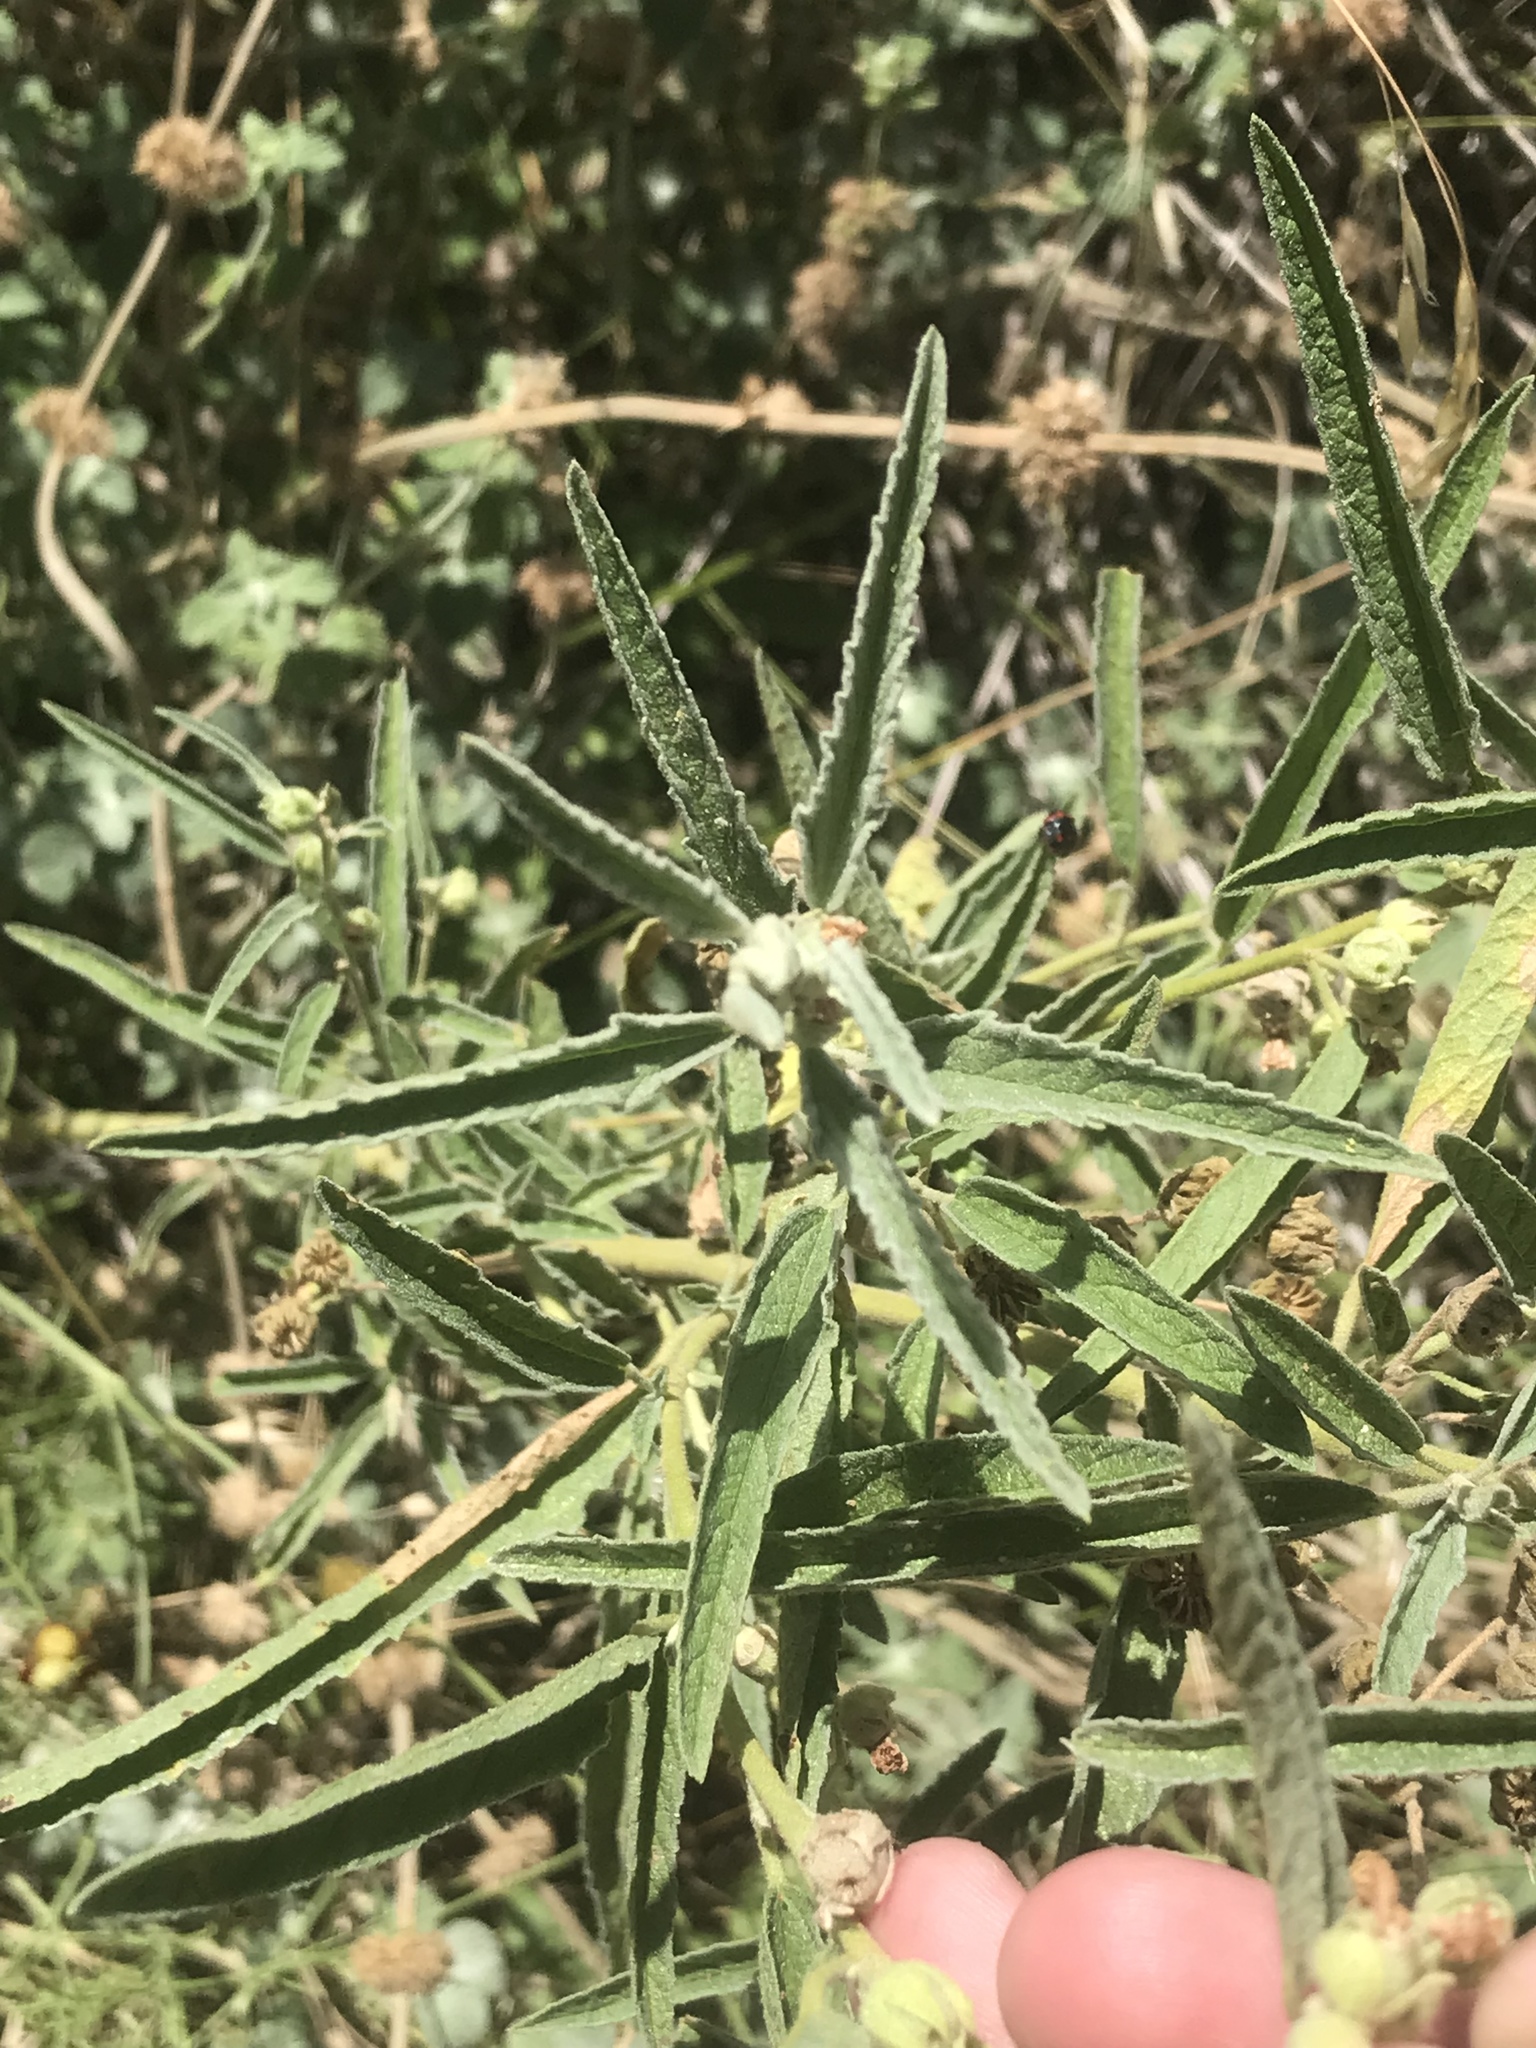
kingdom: Plantae
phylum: Tracheophyta
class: Magnoliopsida
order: Malvales
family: Malvaceae
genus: Sphaeralcea
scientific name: Sphaeralcea angustifolia
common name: Copper globe-mallow
